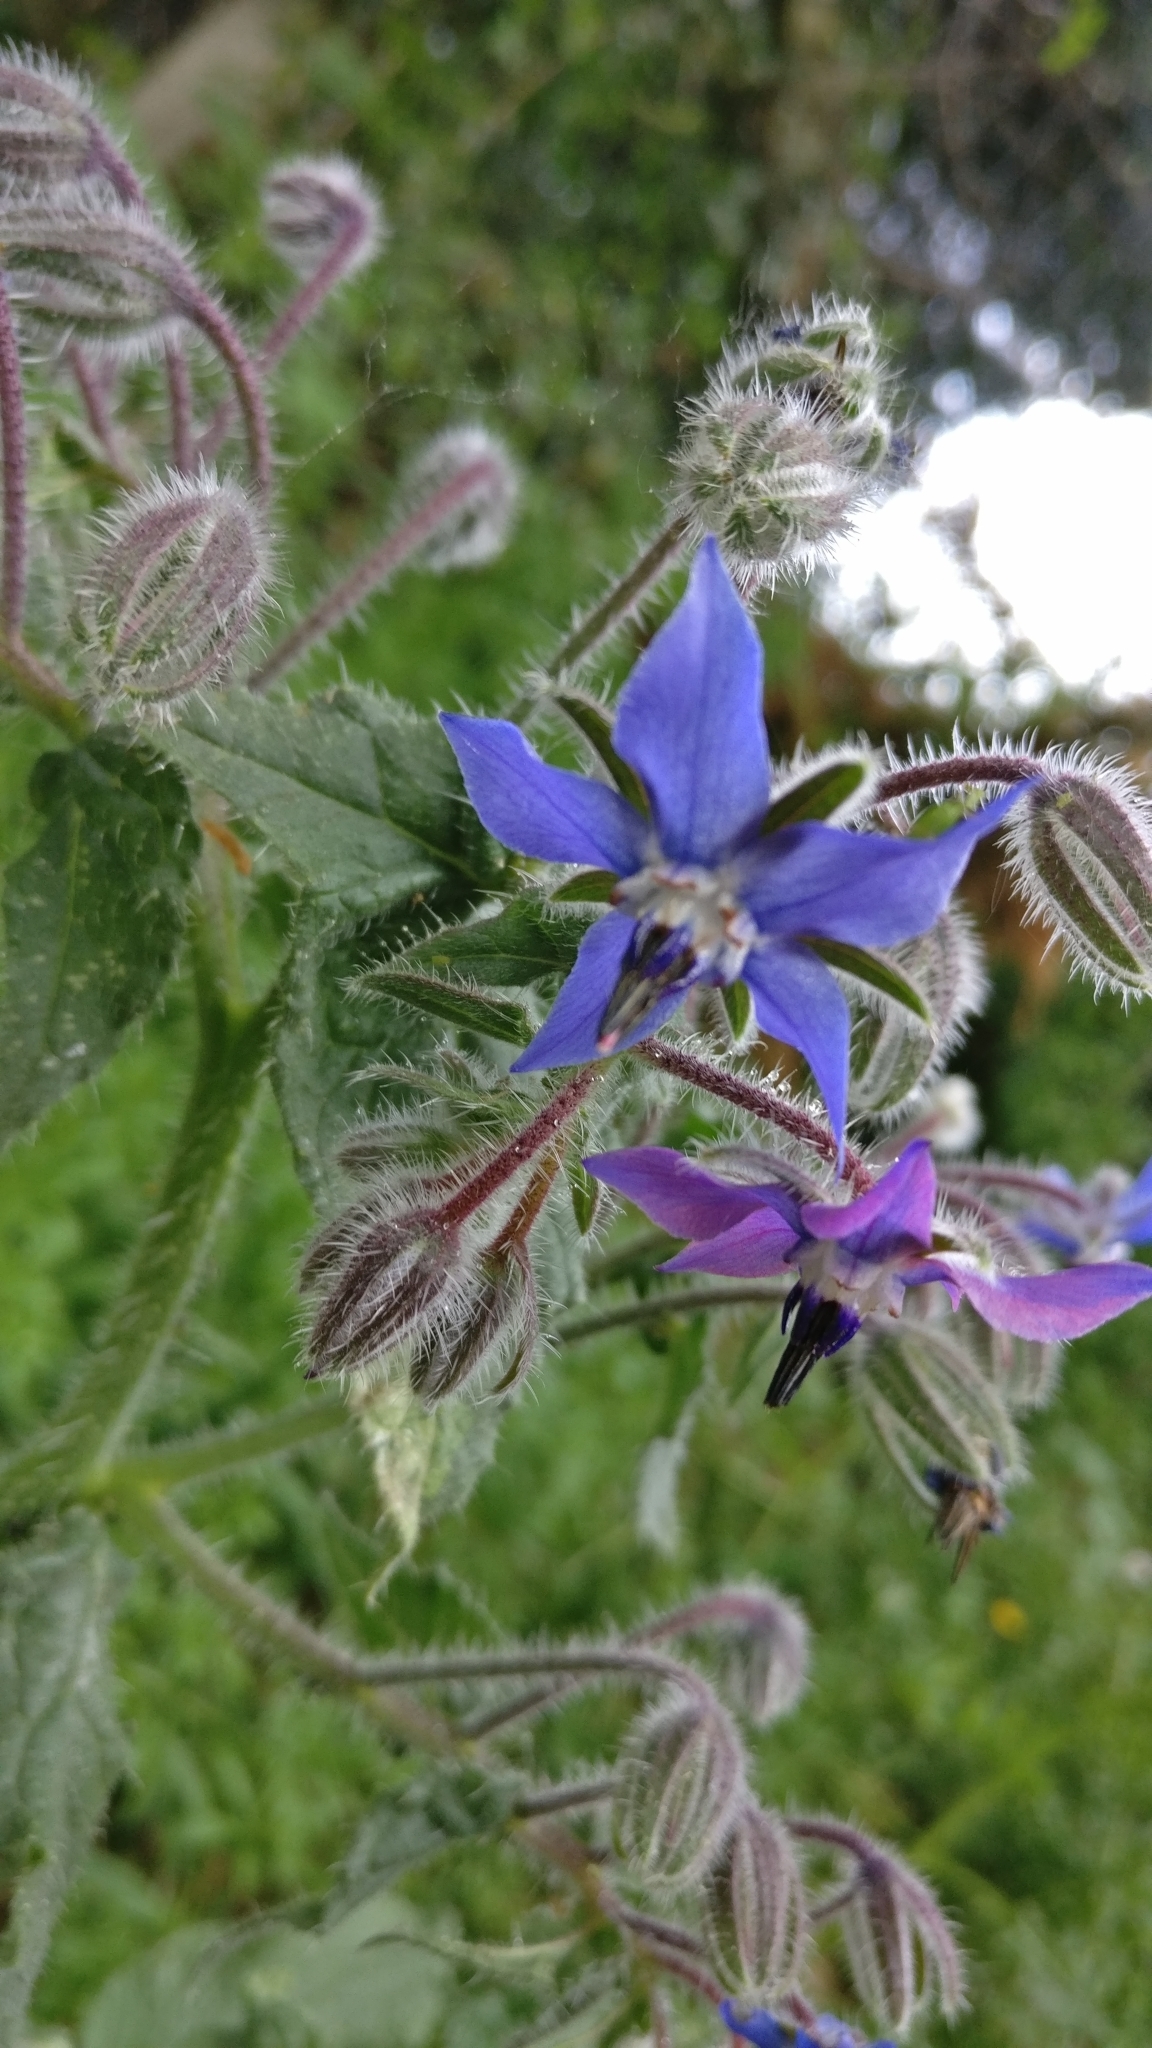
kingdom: Plantae
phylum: Tracheophyta
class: Magnoliopsida
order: Boraginales
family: Boraginaceae
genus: Borago
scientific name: Borago officinalis
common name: Borage
